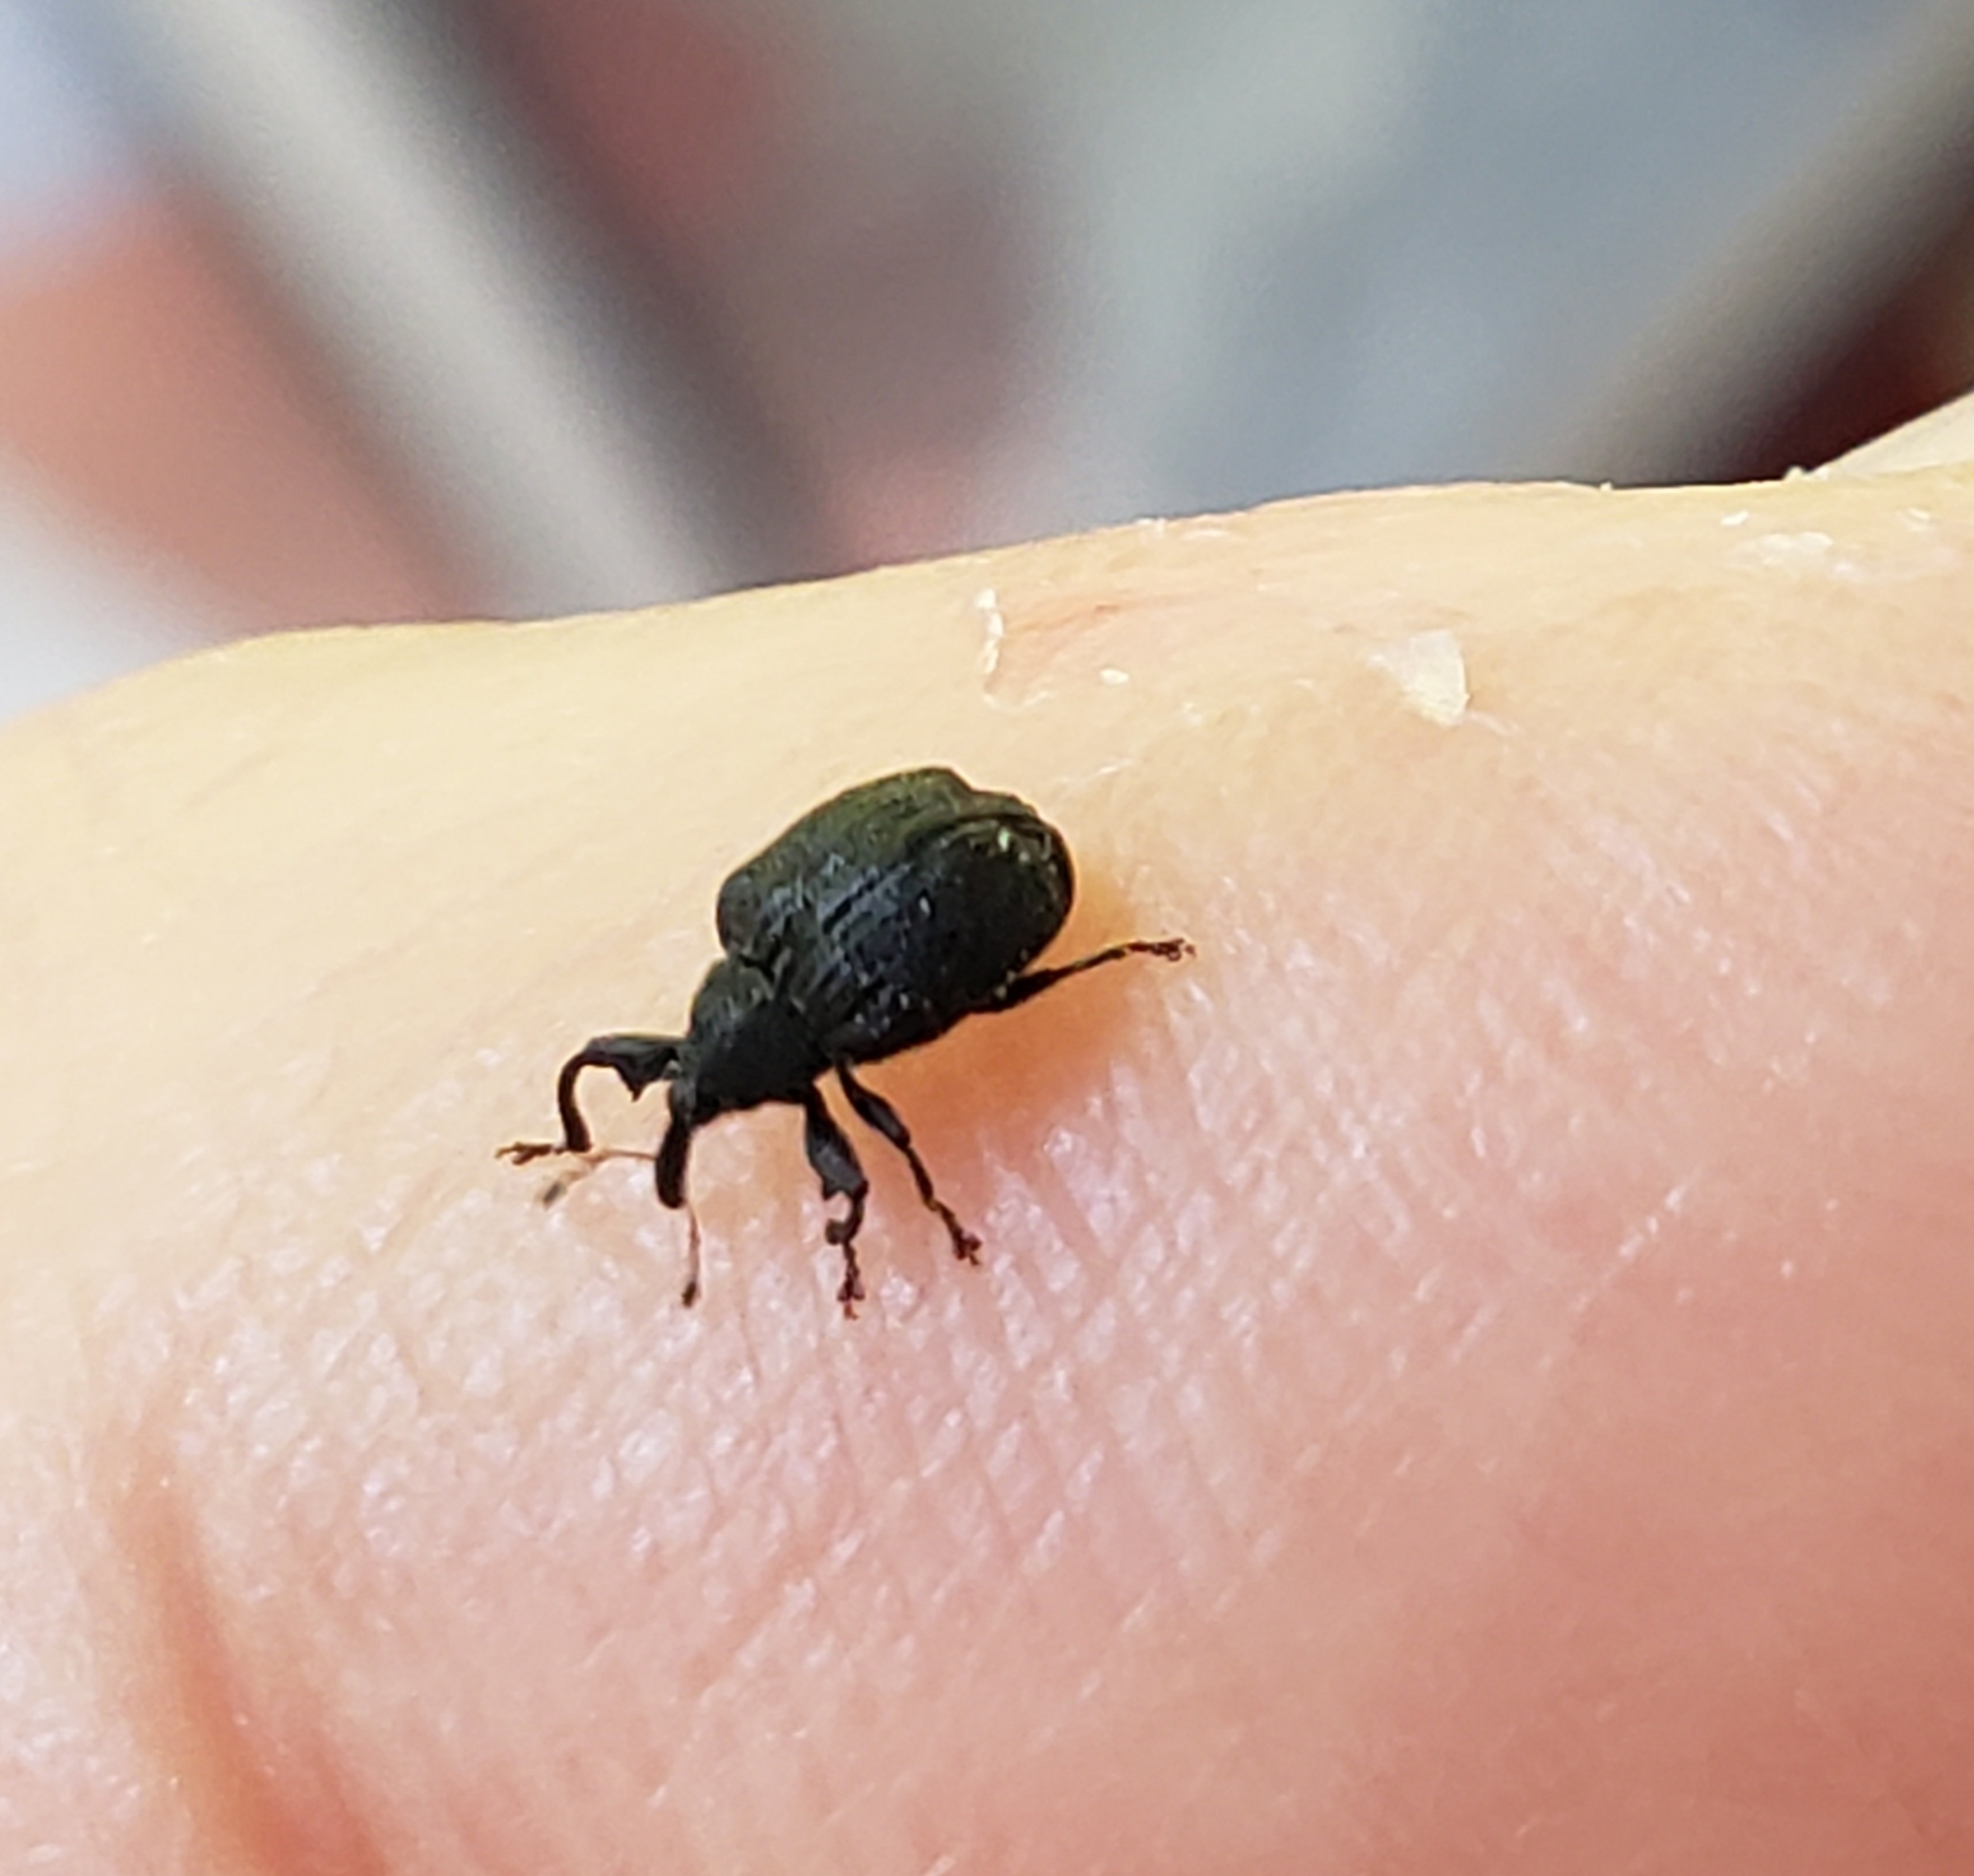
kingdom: Animalia
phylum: Arthropoda
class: Insecta
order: Coleoptera
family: Curculionidae
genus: Odontopus
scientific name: Odontopus calceatus
